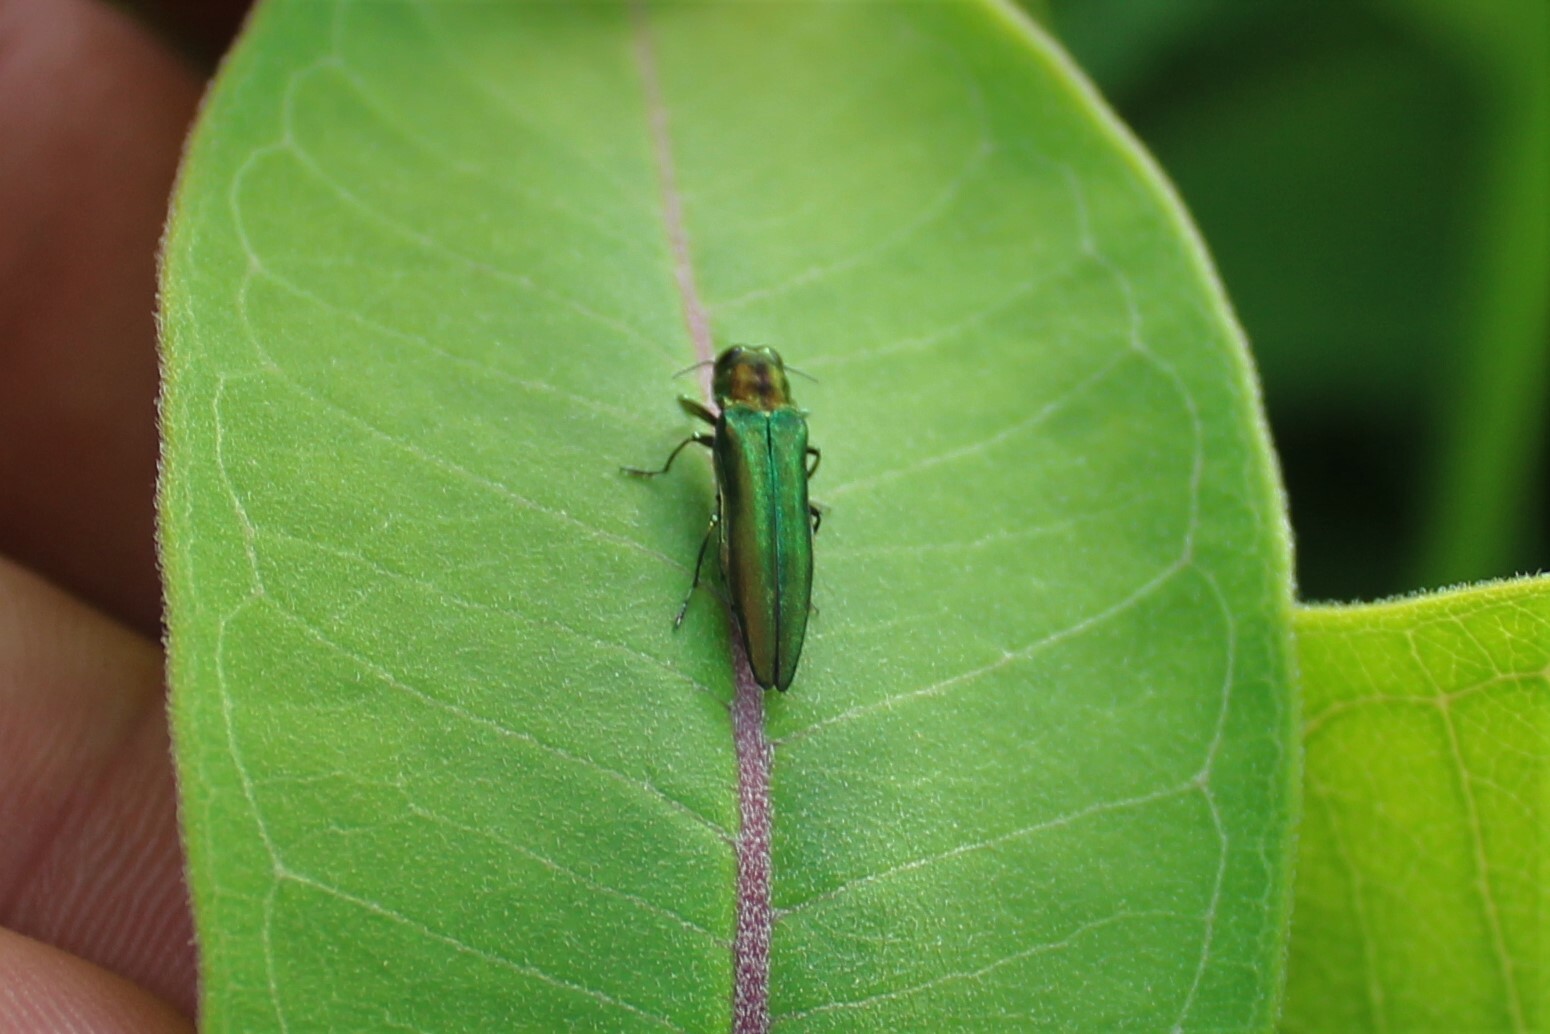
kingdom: Animalia
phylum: Arthropoda
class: Insecta
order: Coleoptera
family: Buprestidae
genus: Agrilus
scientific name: Agrilus planipennis
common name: Emerald ash borer
